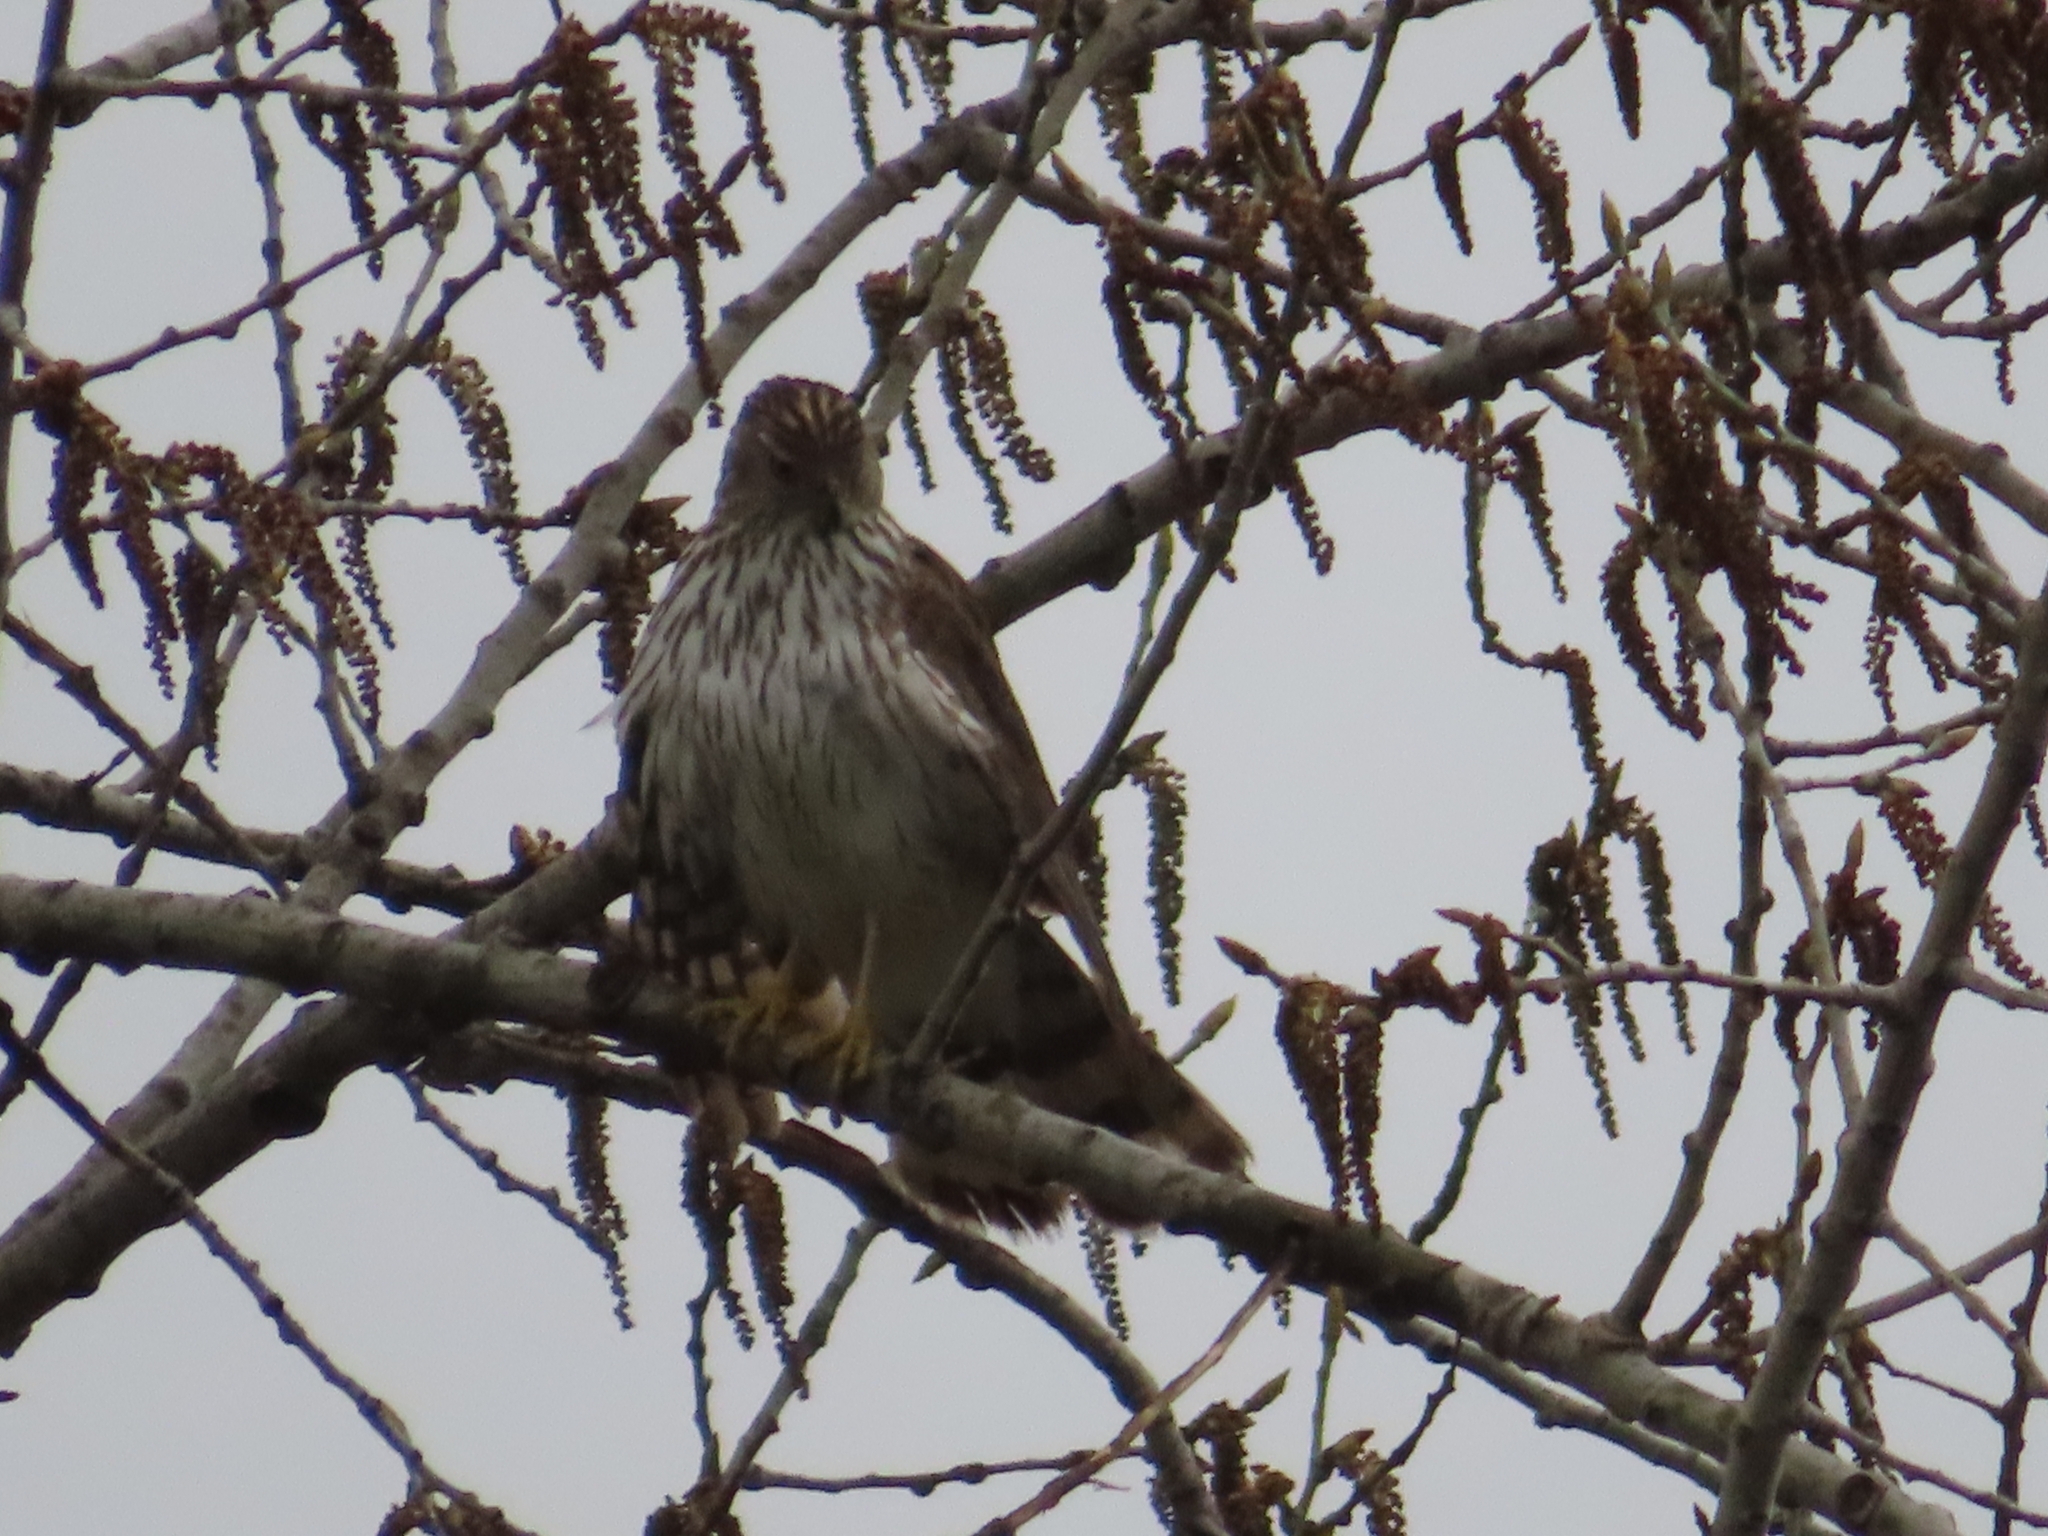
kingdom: Animalia
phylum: Chordata
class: Aves
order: Accipitriformes
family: Accipitridae
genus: Accipiter
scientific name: Accipiter cooperii
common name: Cooper's hawk
